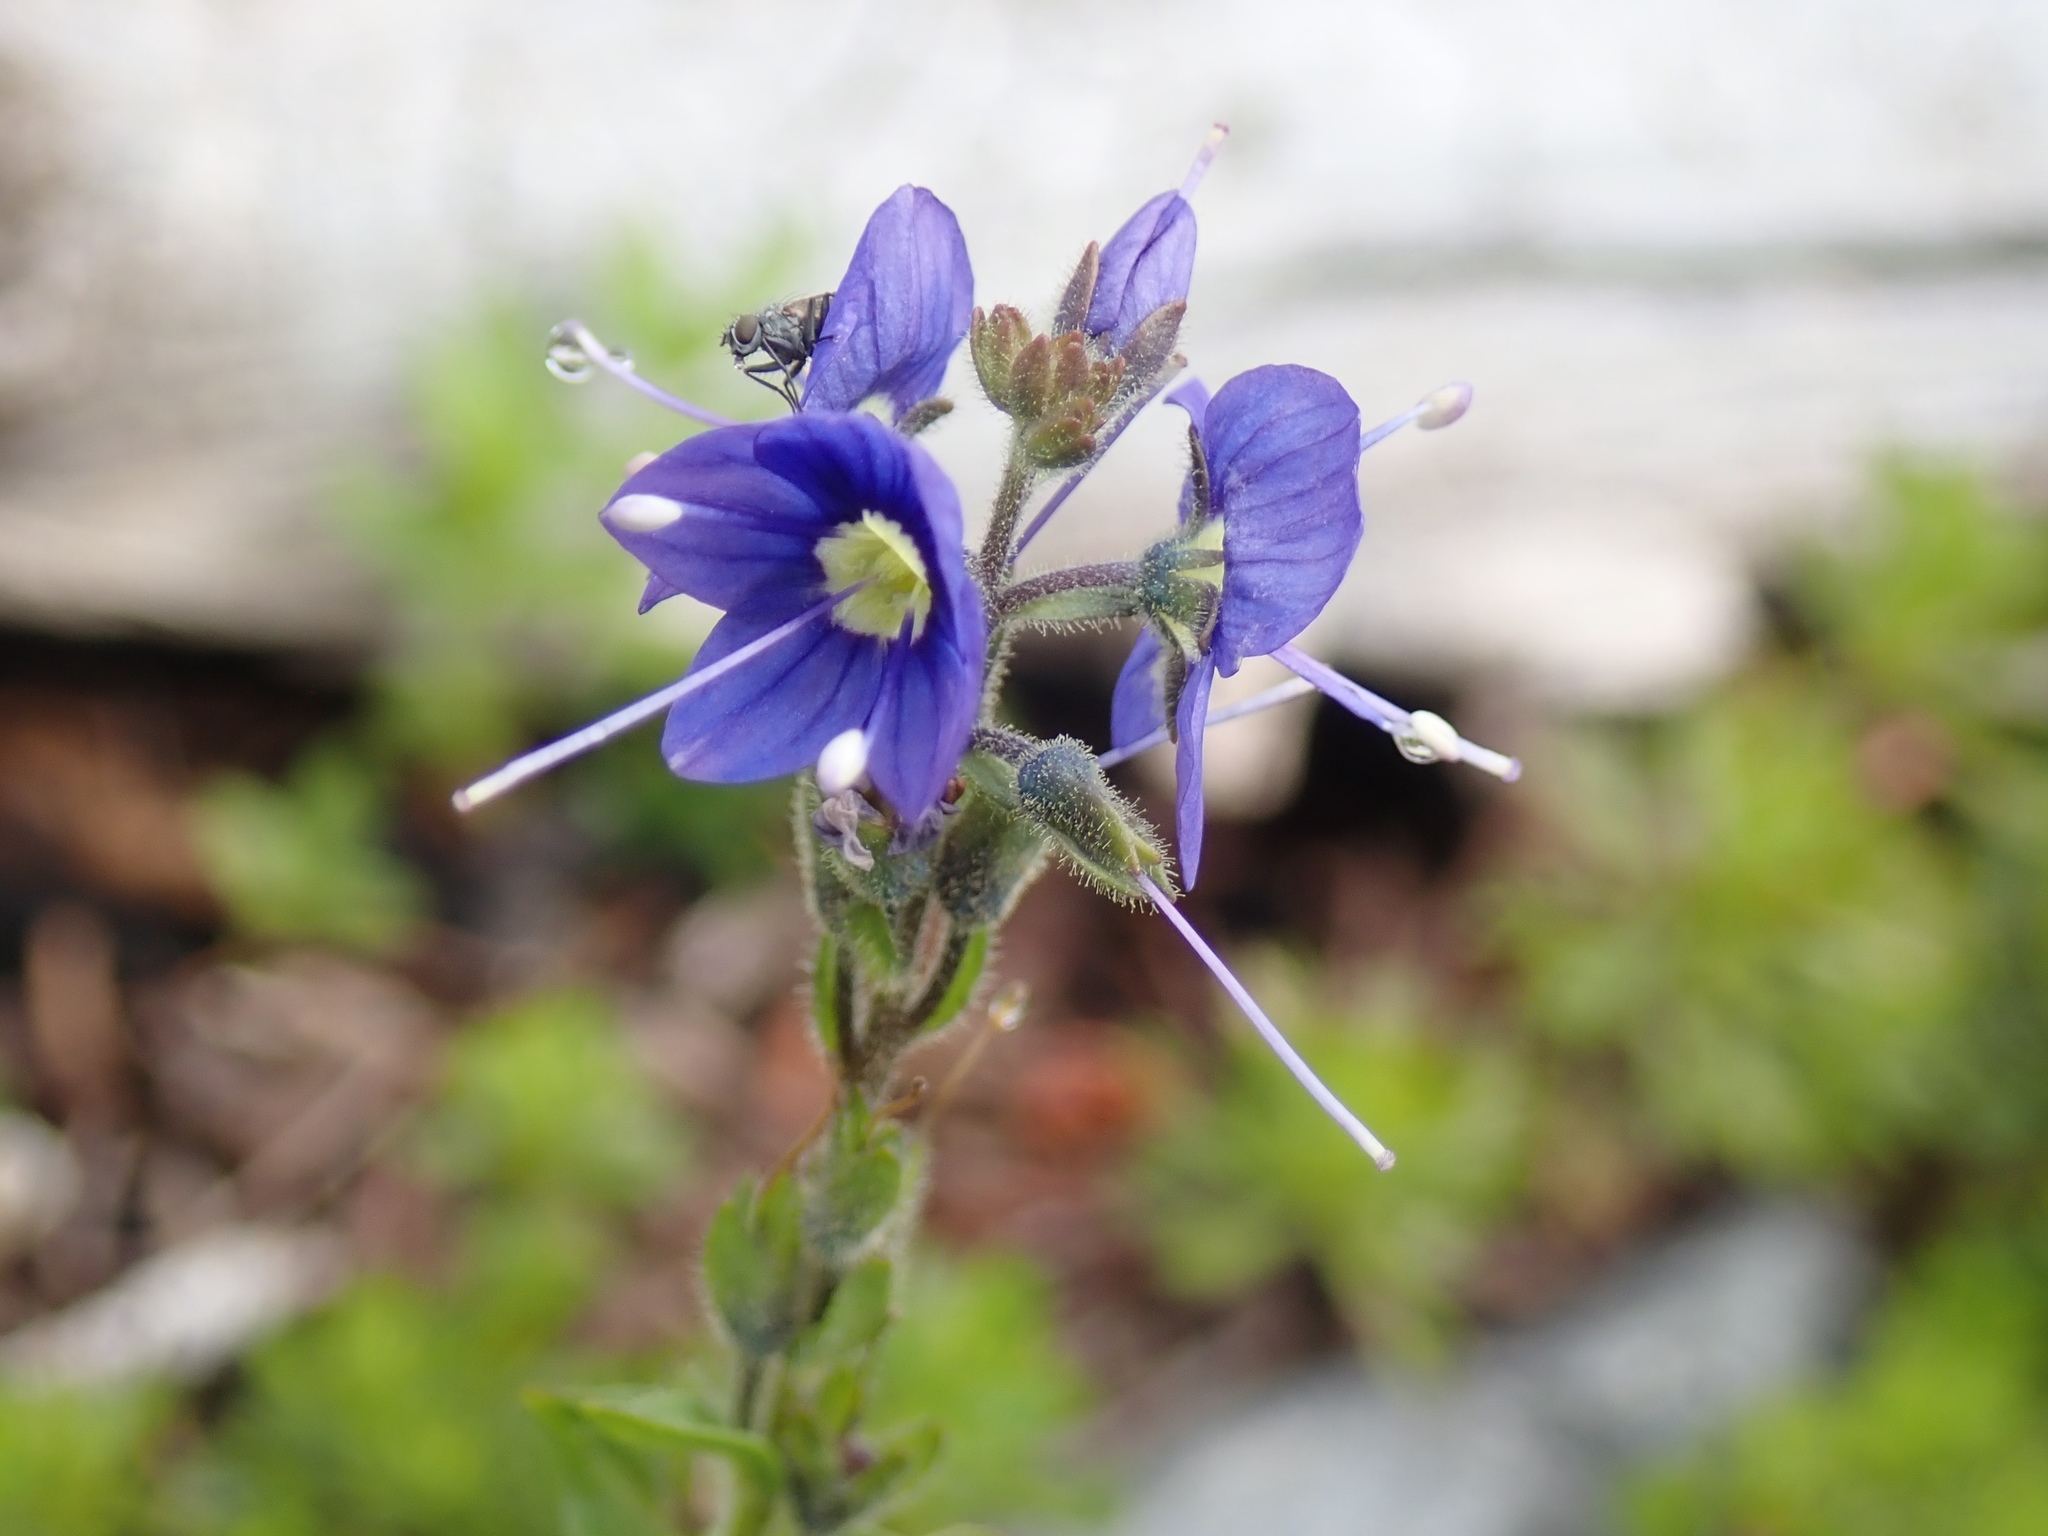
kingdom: Plantae
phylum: Tracheophyta
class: Magnoliopsida
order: Lamiales
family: Plantaginaceae
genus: Veronica
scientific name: Veronica cusickii
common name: Cusick's speedwell
